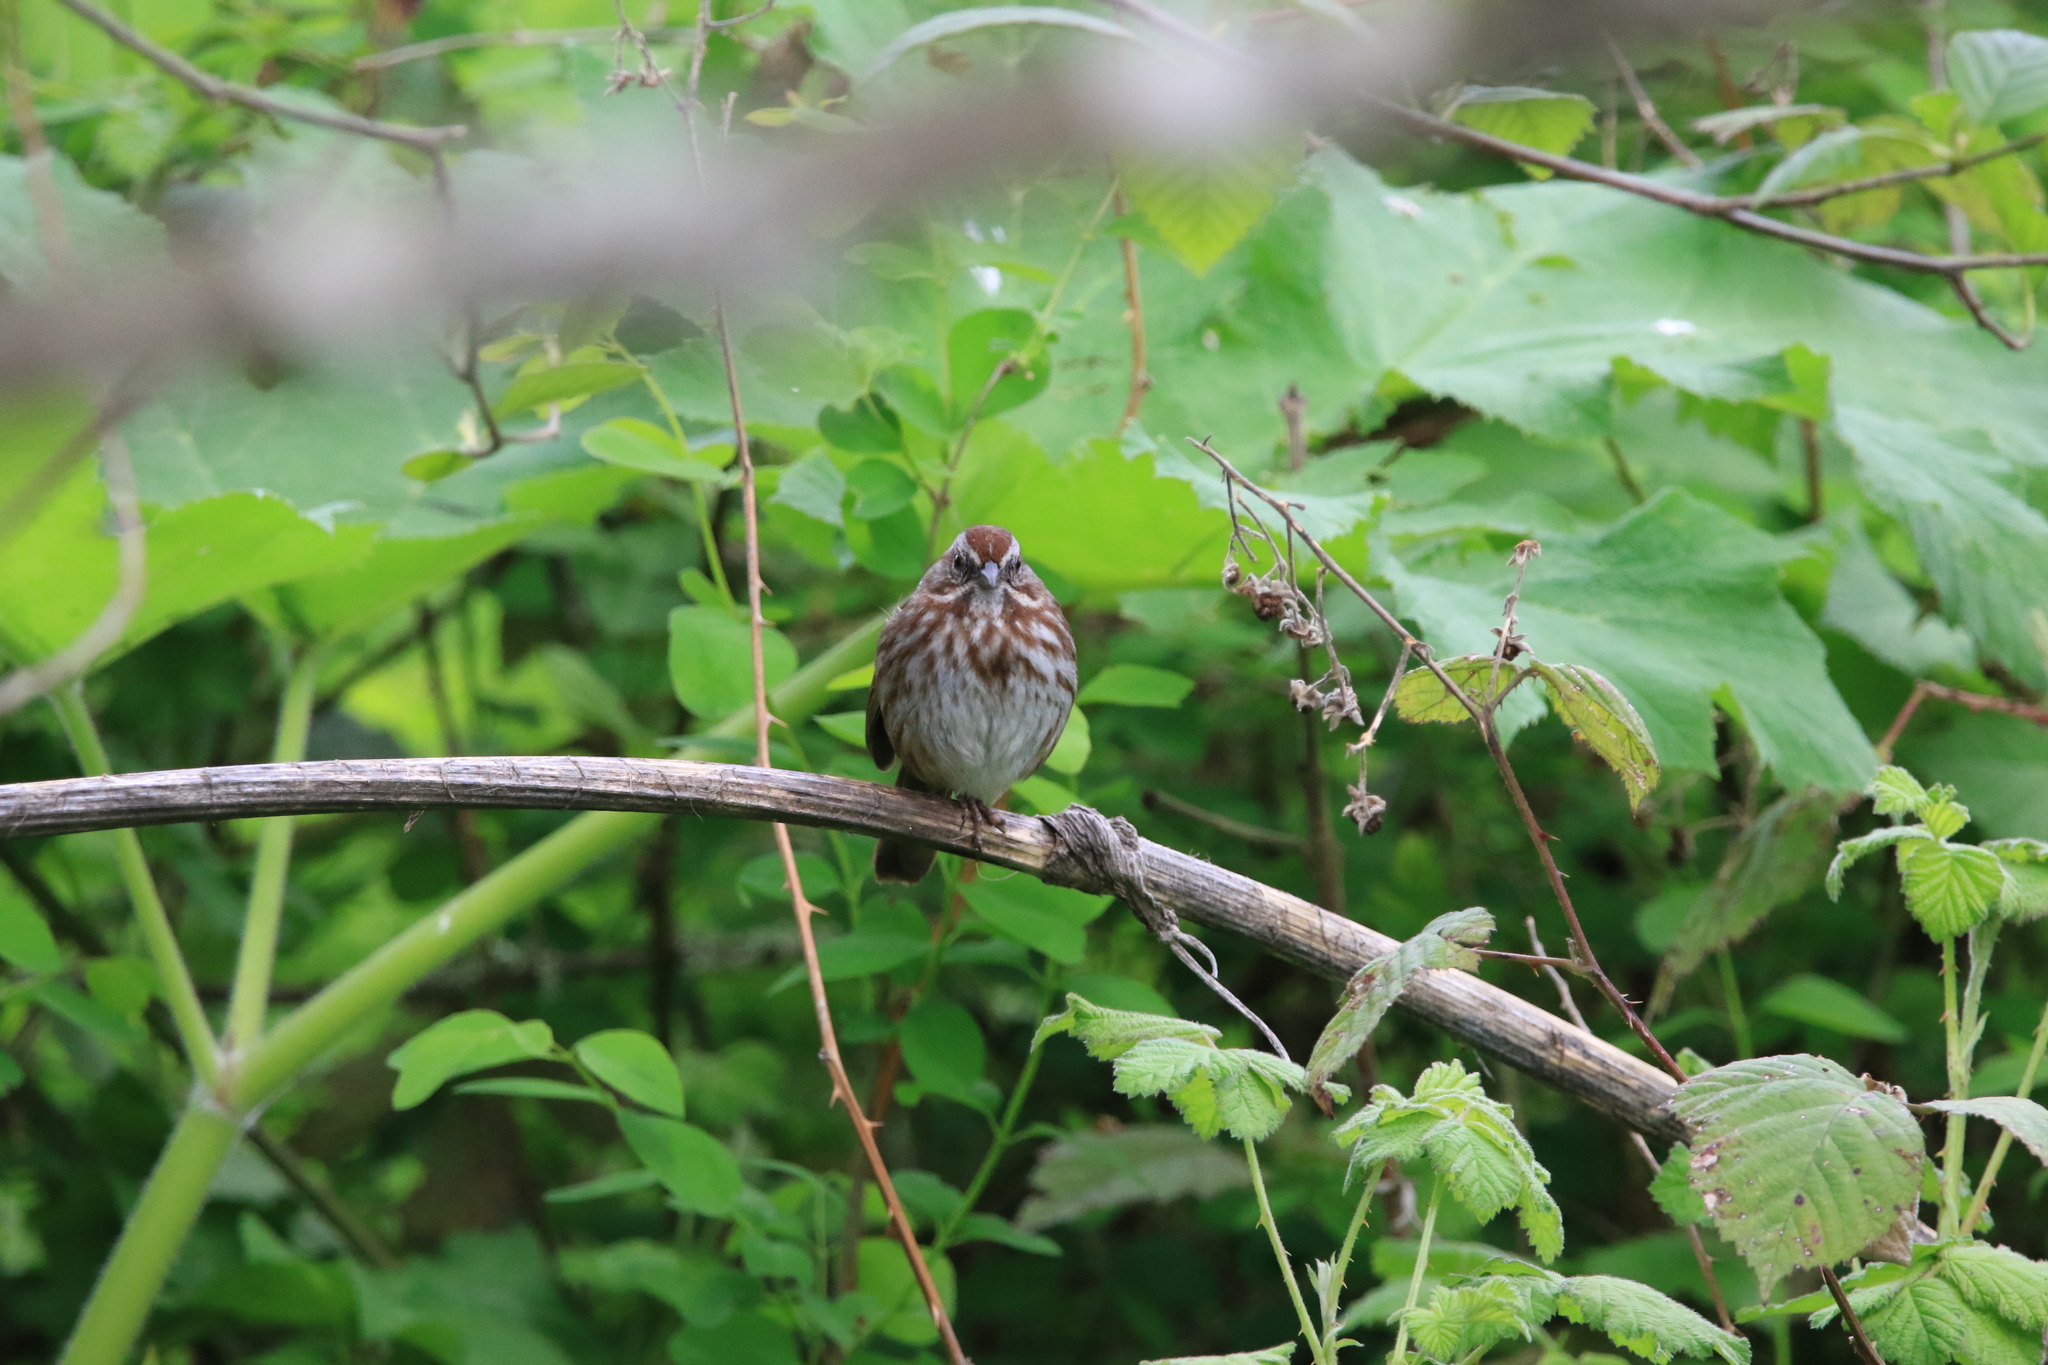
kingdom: Animalia
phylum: Chordata
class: Aves
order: Passeriformes
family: Passerellidae
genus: Melospiza
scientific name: Melospiza melodia
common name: Song sparrow
